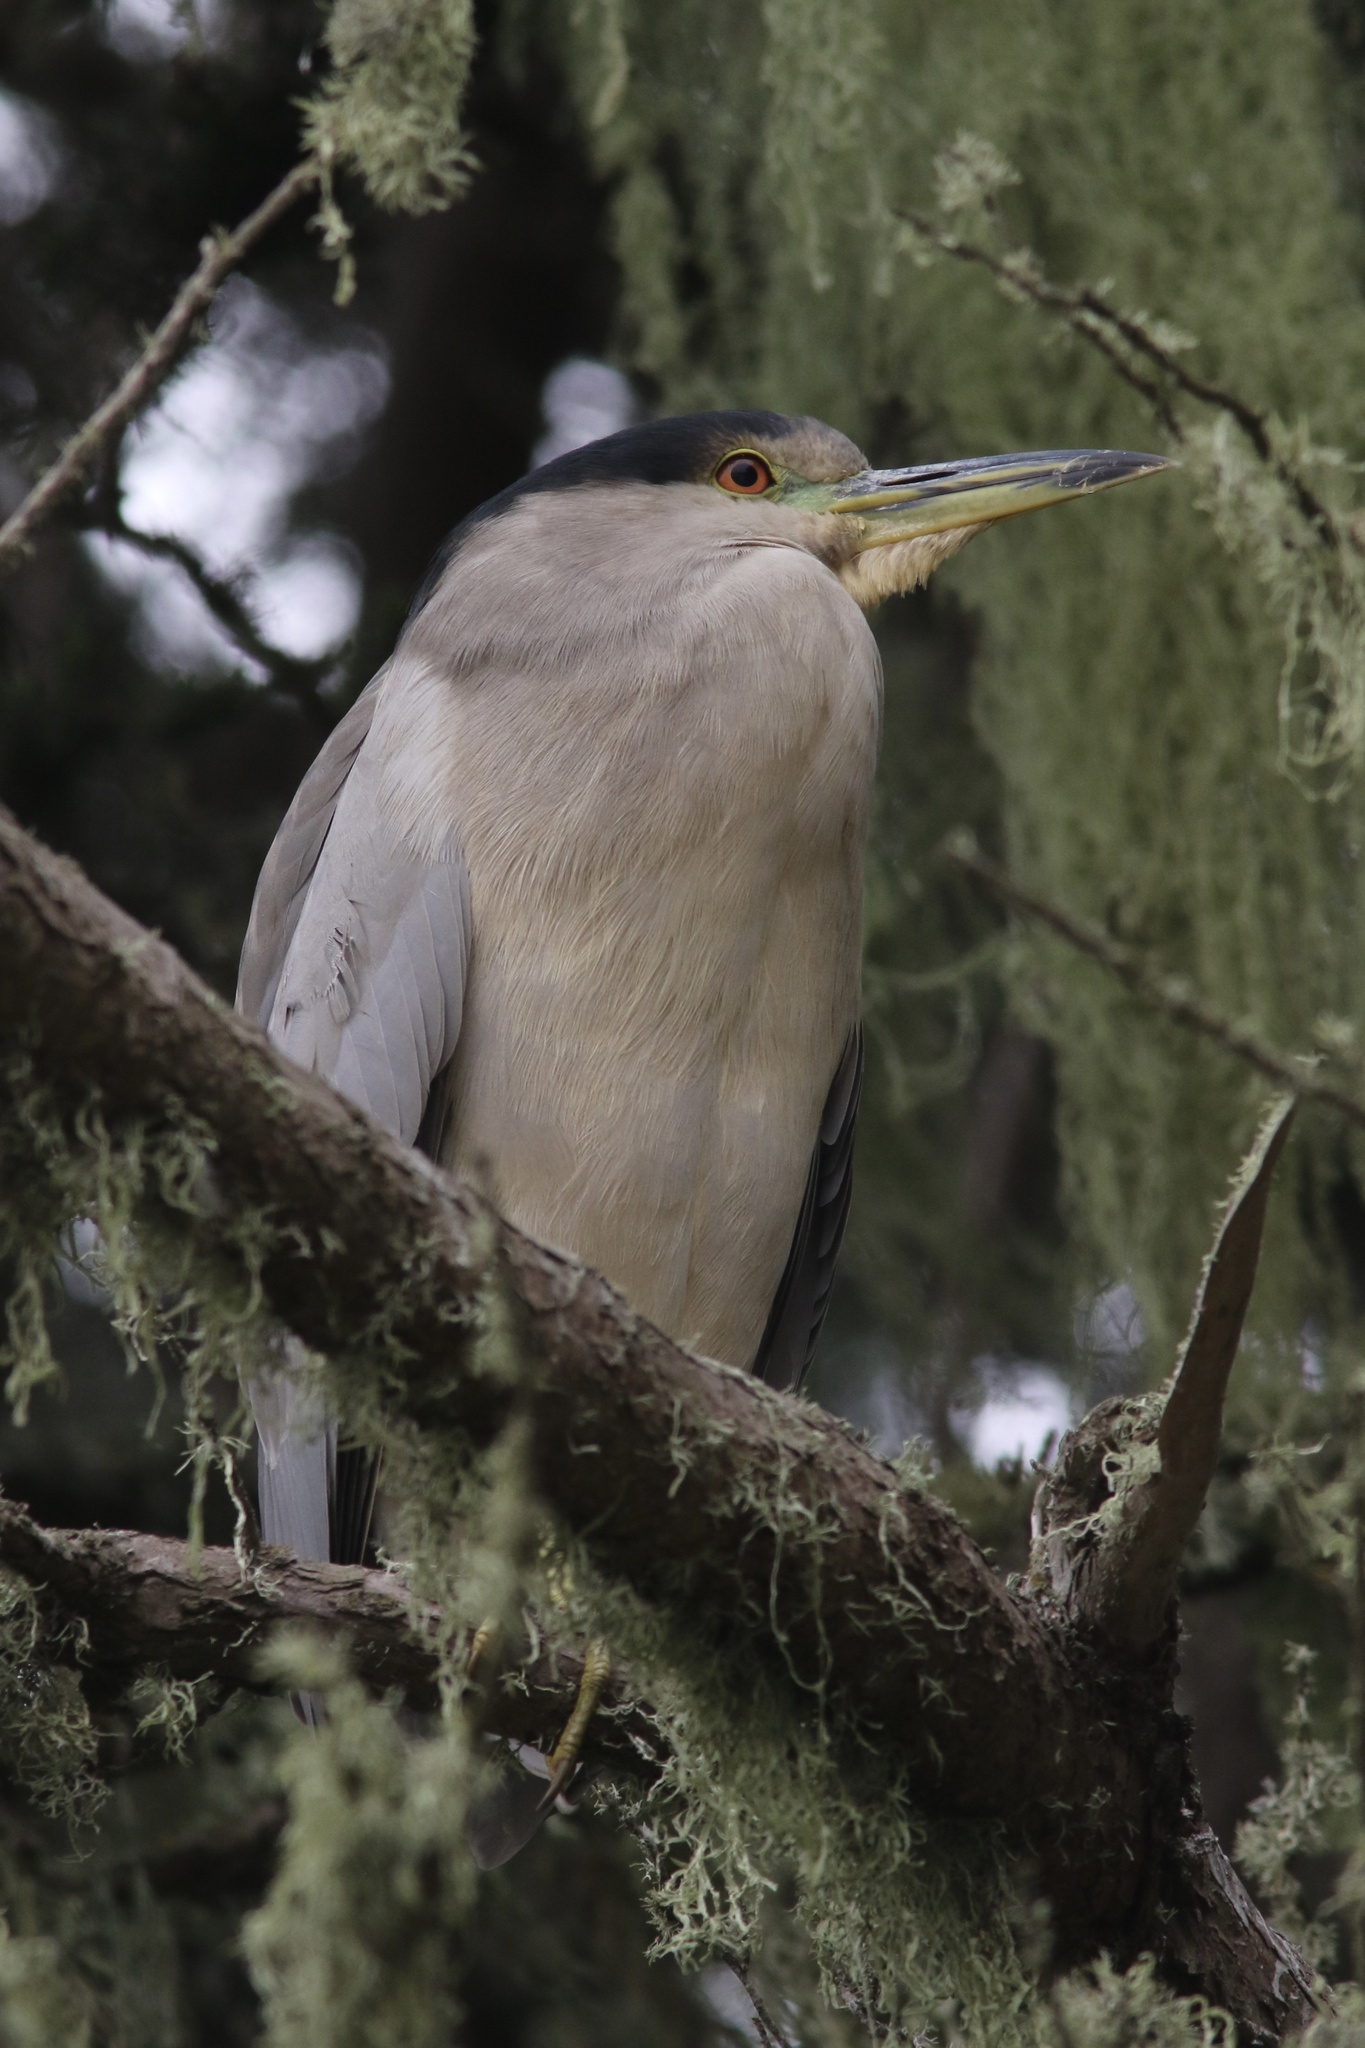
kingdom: Animalia
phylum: Chordata
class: Aves
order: Pelecaniformes
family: Ardeidae
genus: Nycticorax
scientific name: Nycticorax nycticorax
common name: Black-crowned night heron
